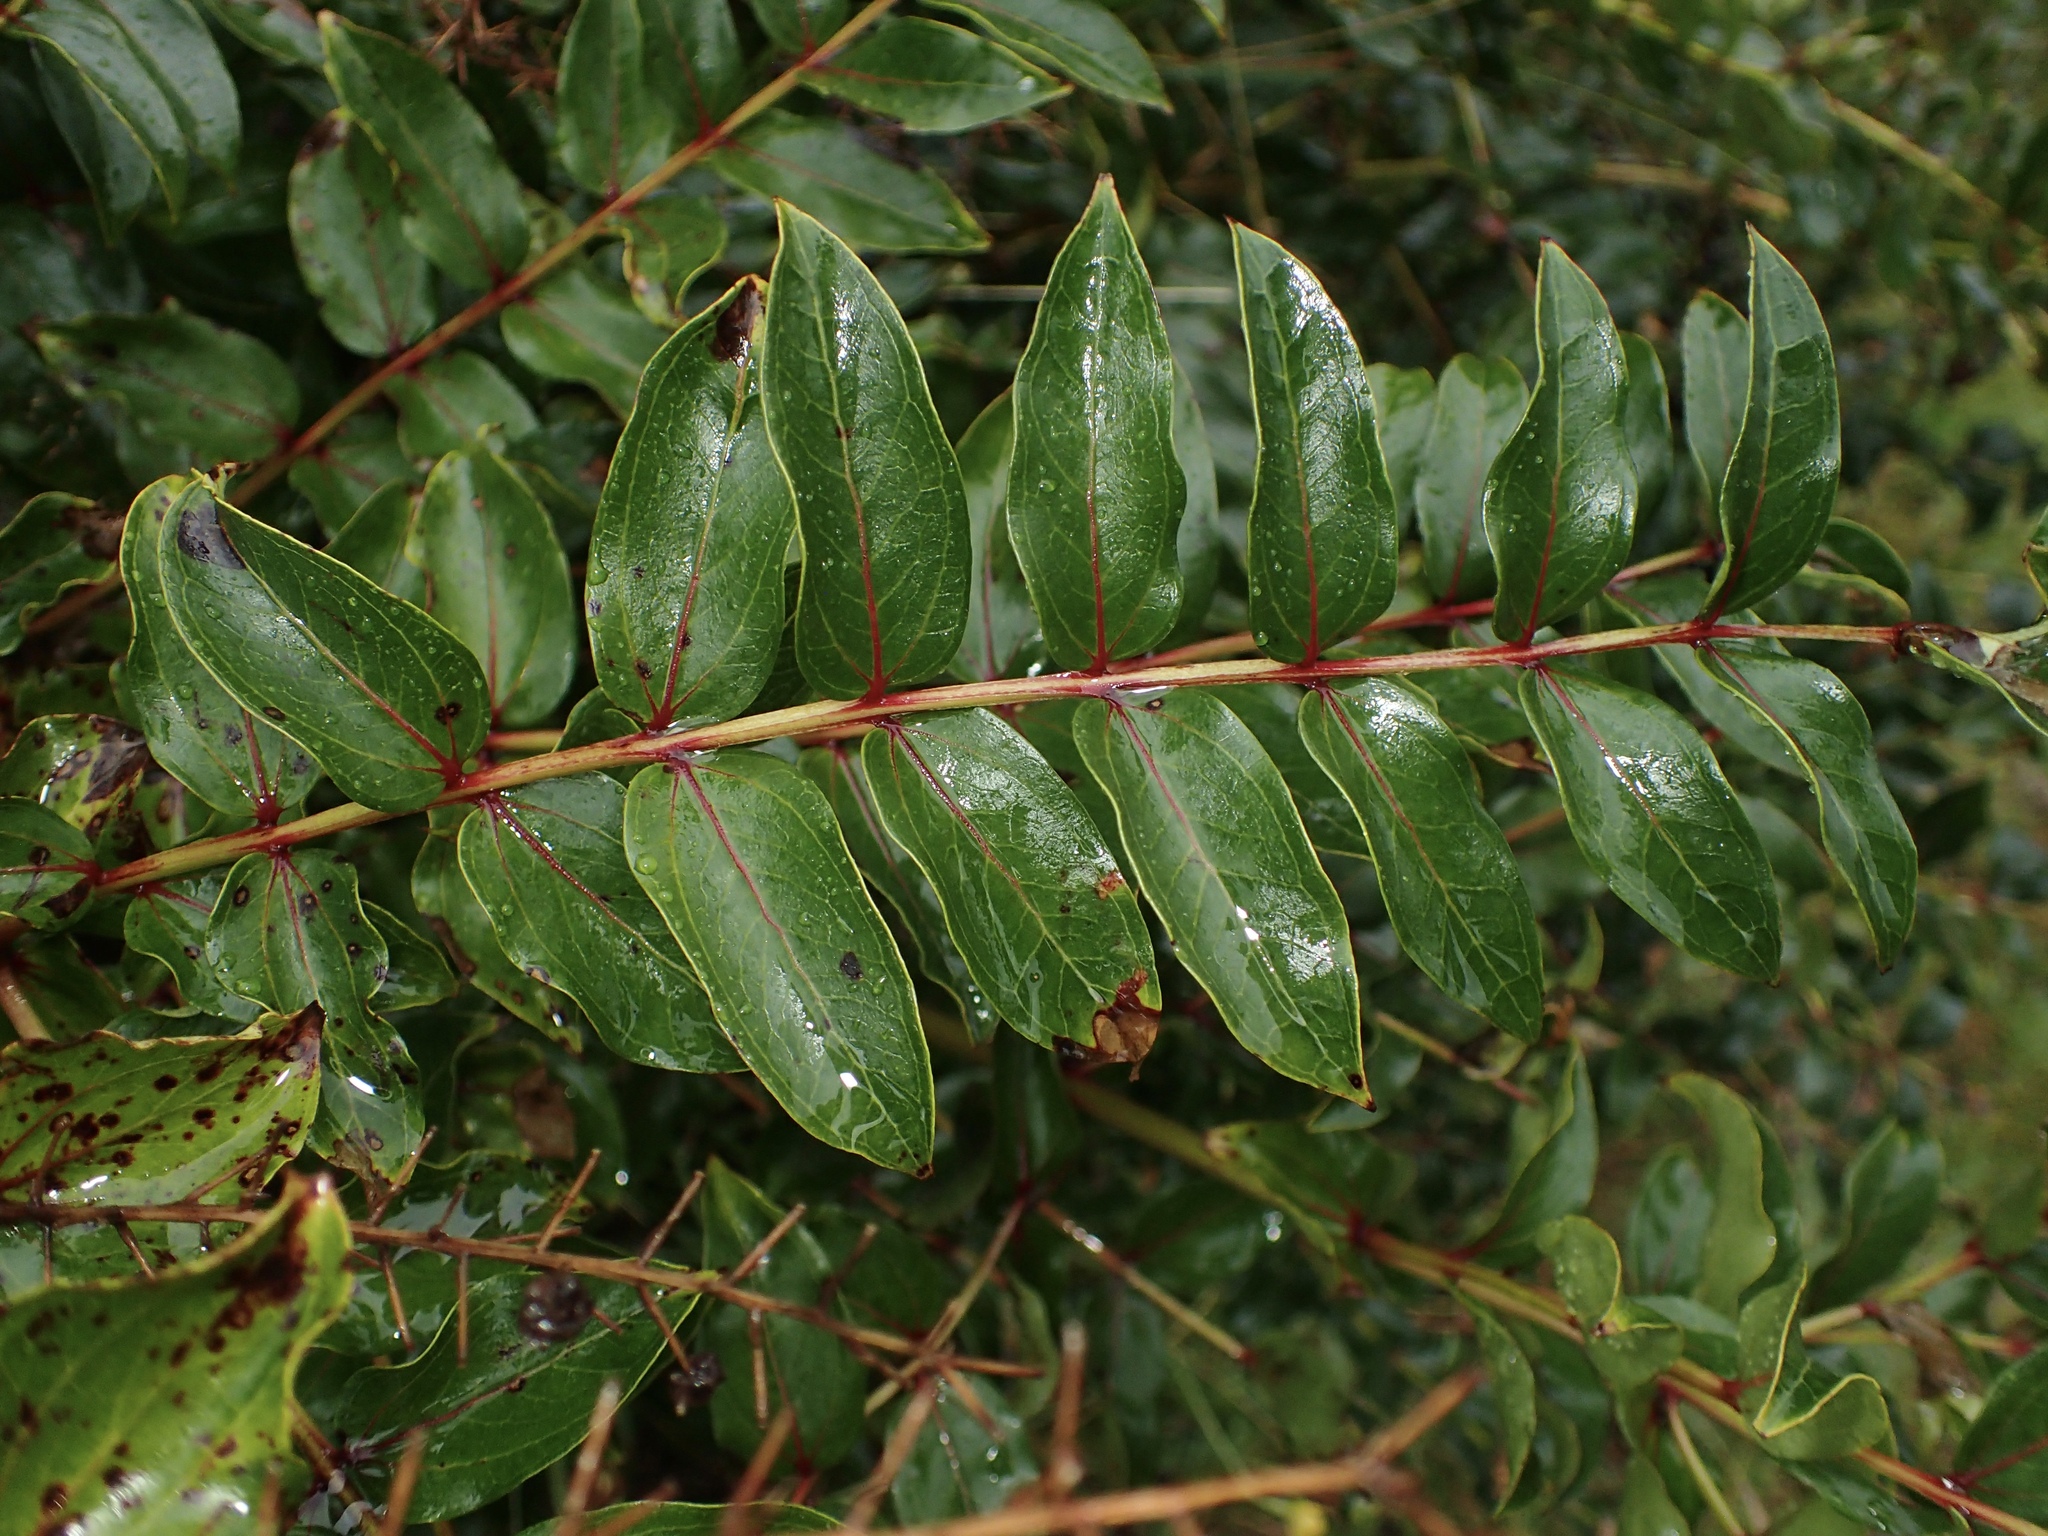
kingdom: Plantae
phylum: Tracheophyta
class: Magnoliopsida
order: Cucurbitales
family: Coriariaceae
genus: Coriaria
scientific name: Coriaria arborea
